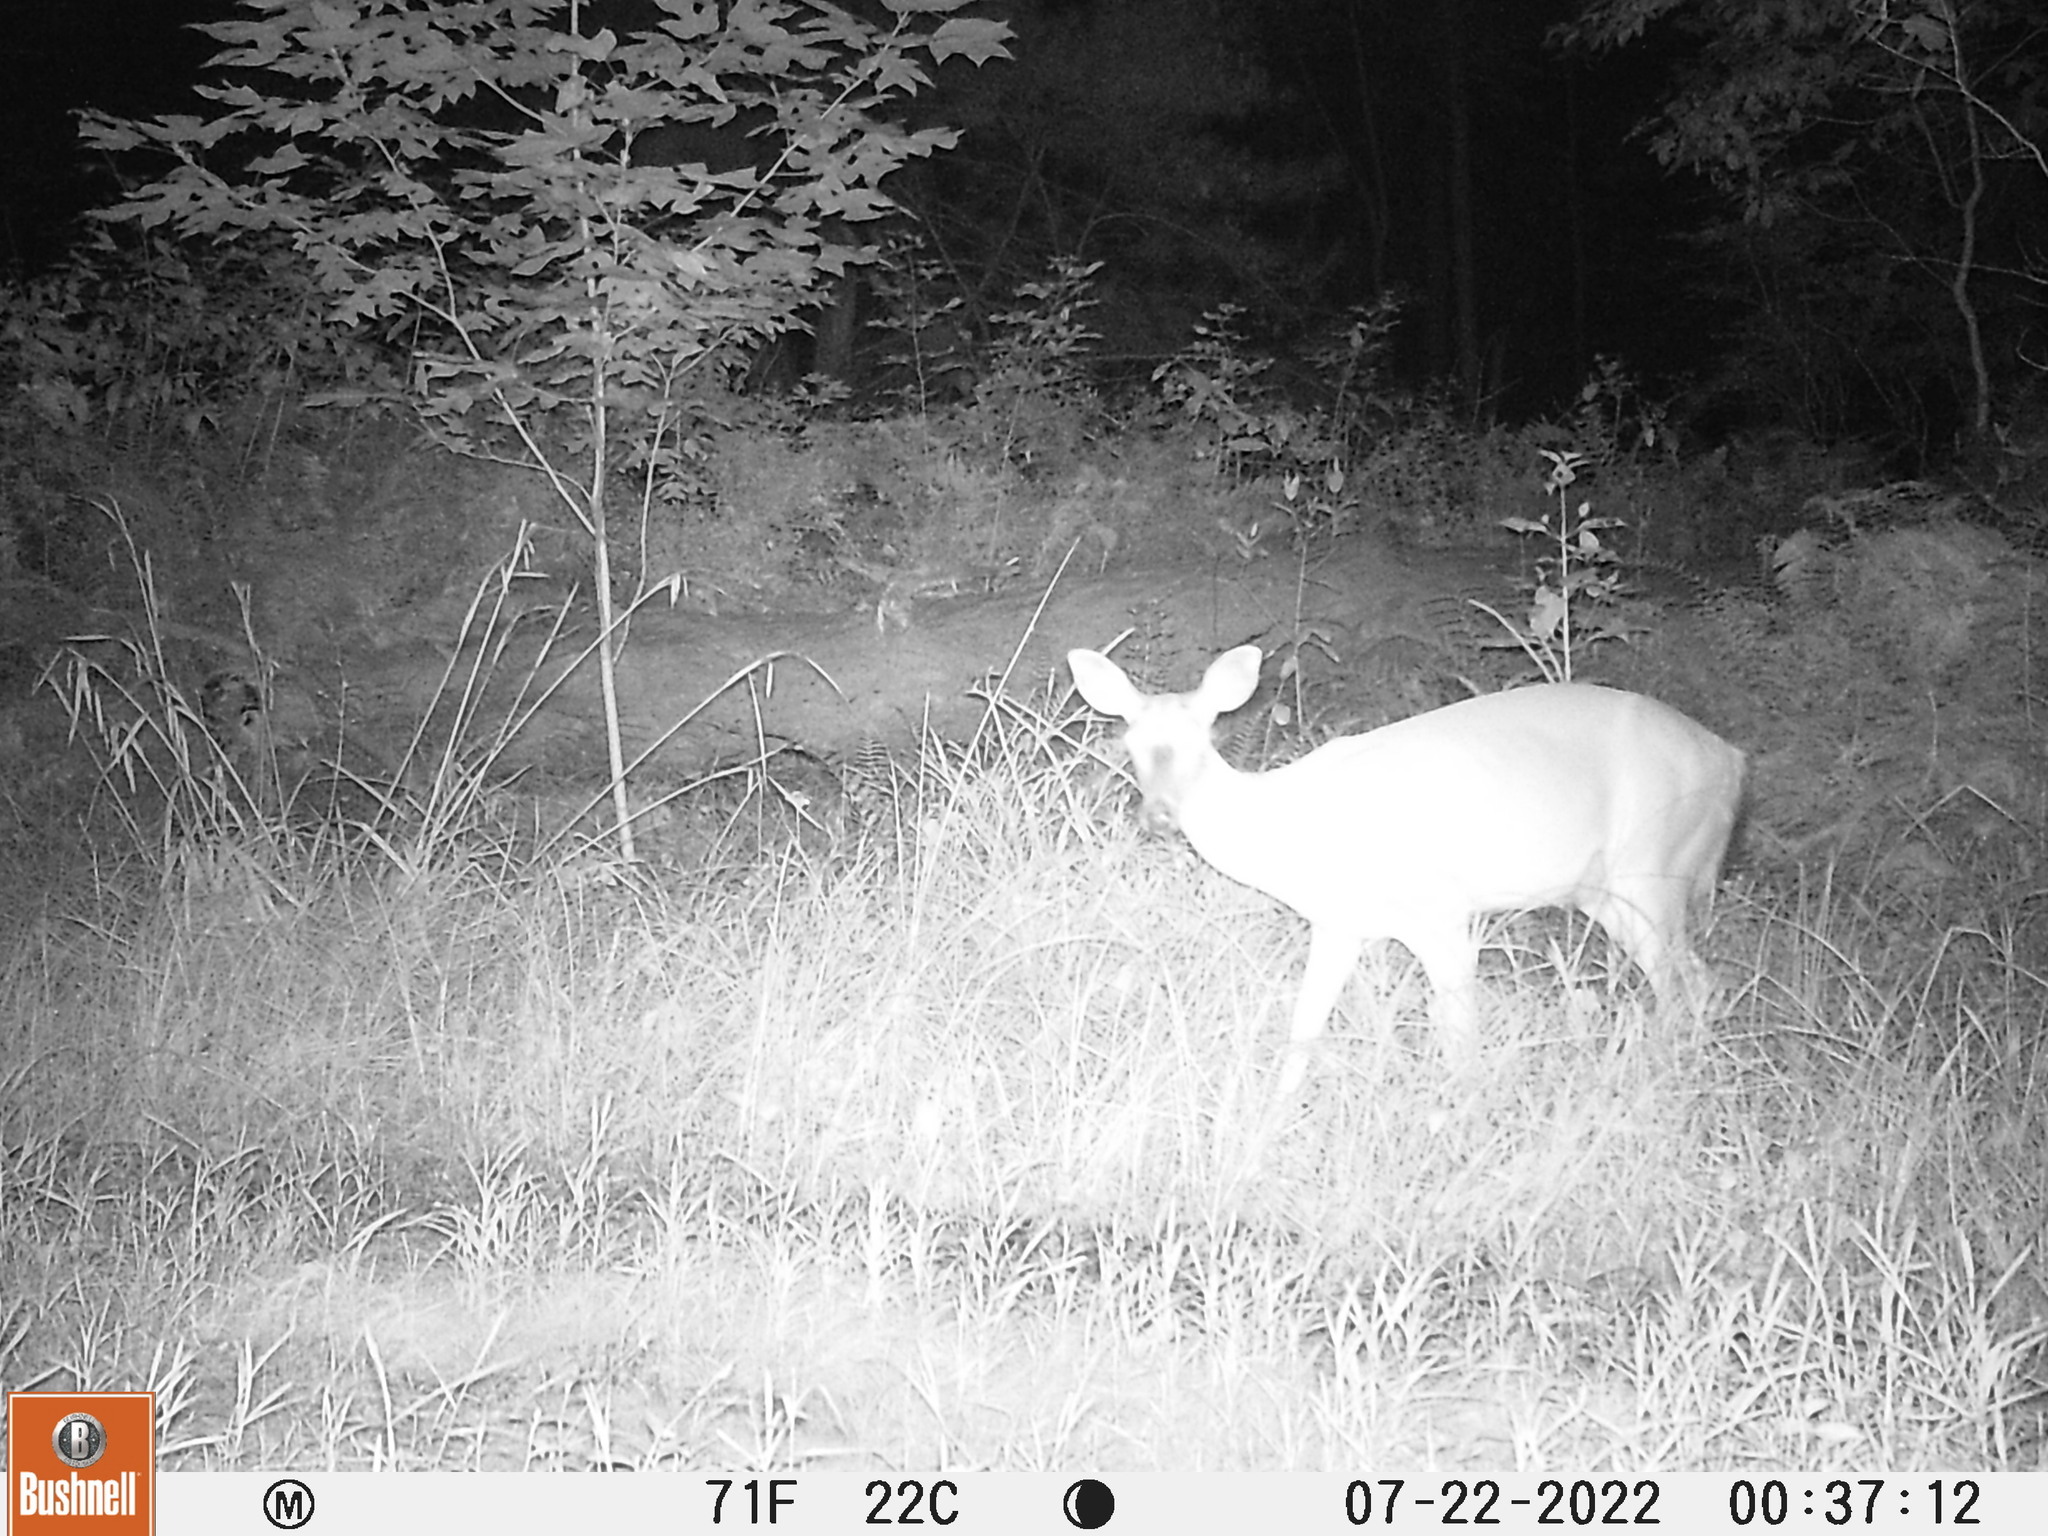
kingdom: Animalia
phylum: Chordata
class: Mammalia
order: Artiodactyla
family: Cervidae
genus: Odocoileus
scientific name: Odocoileus virginianus
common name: White-tailed deer
